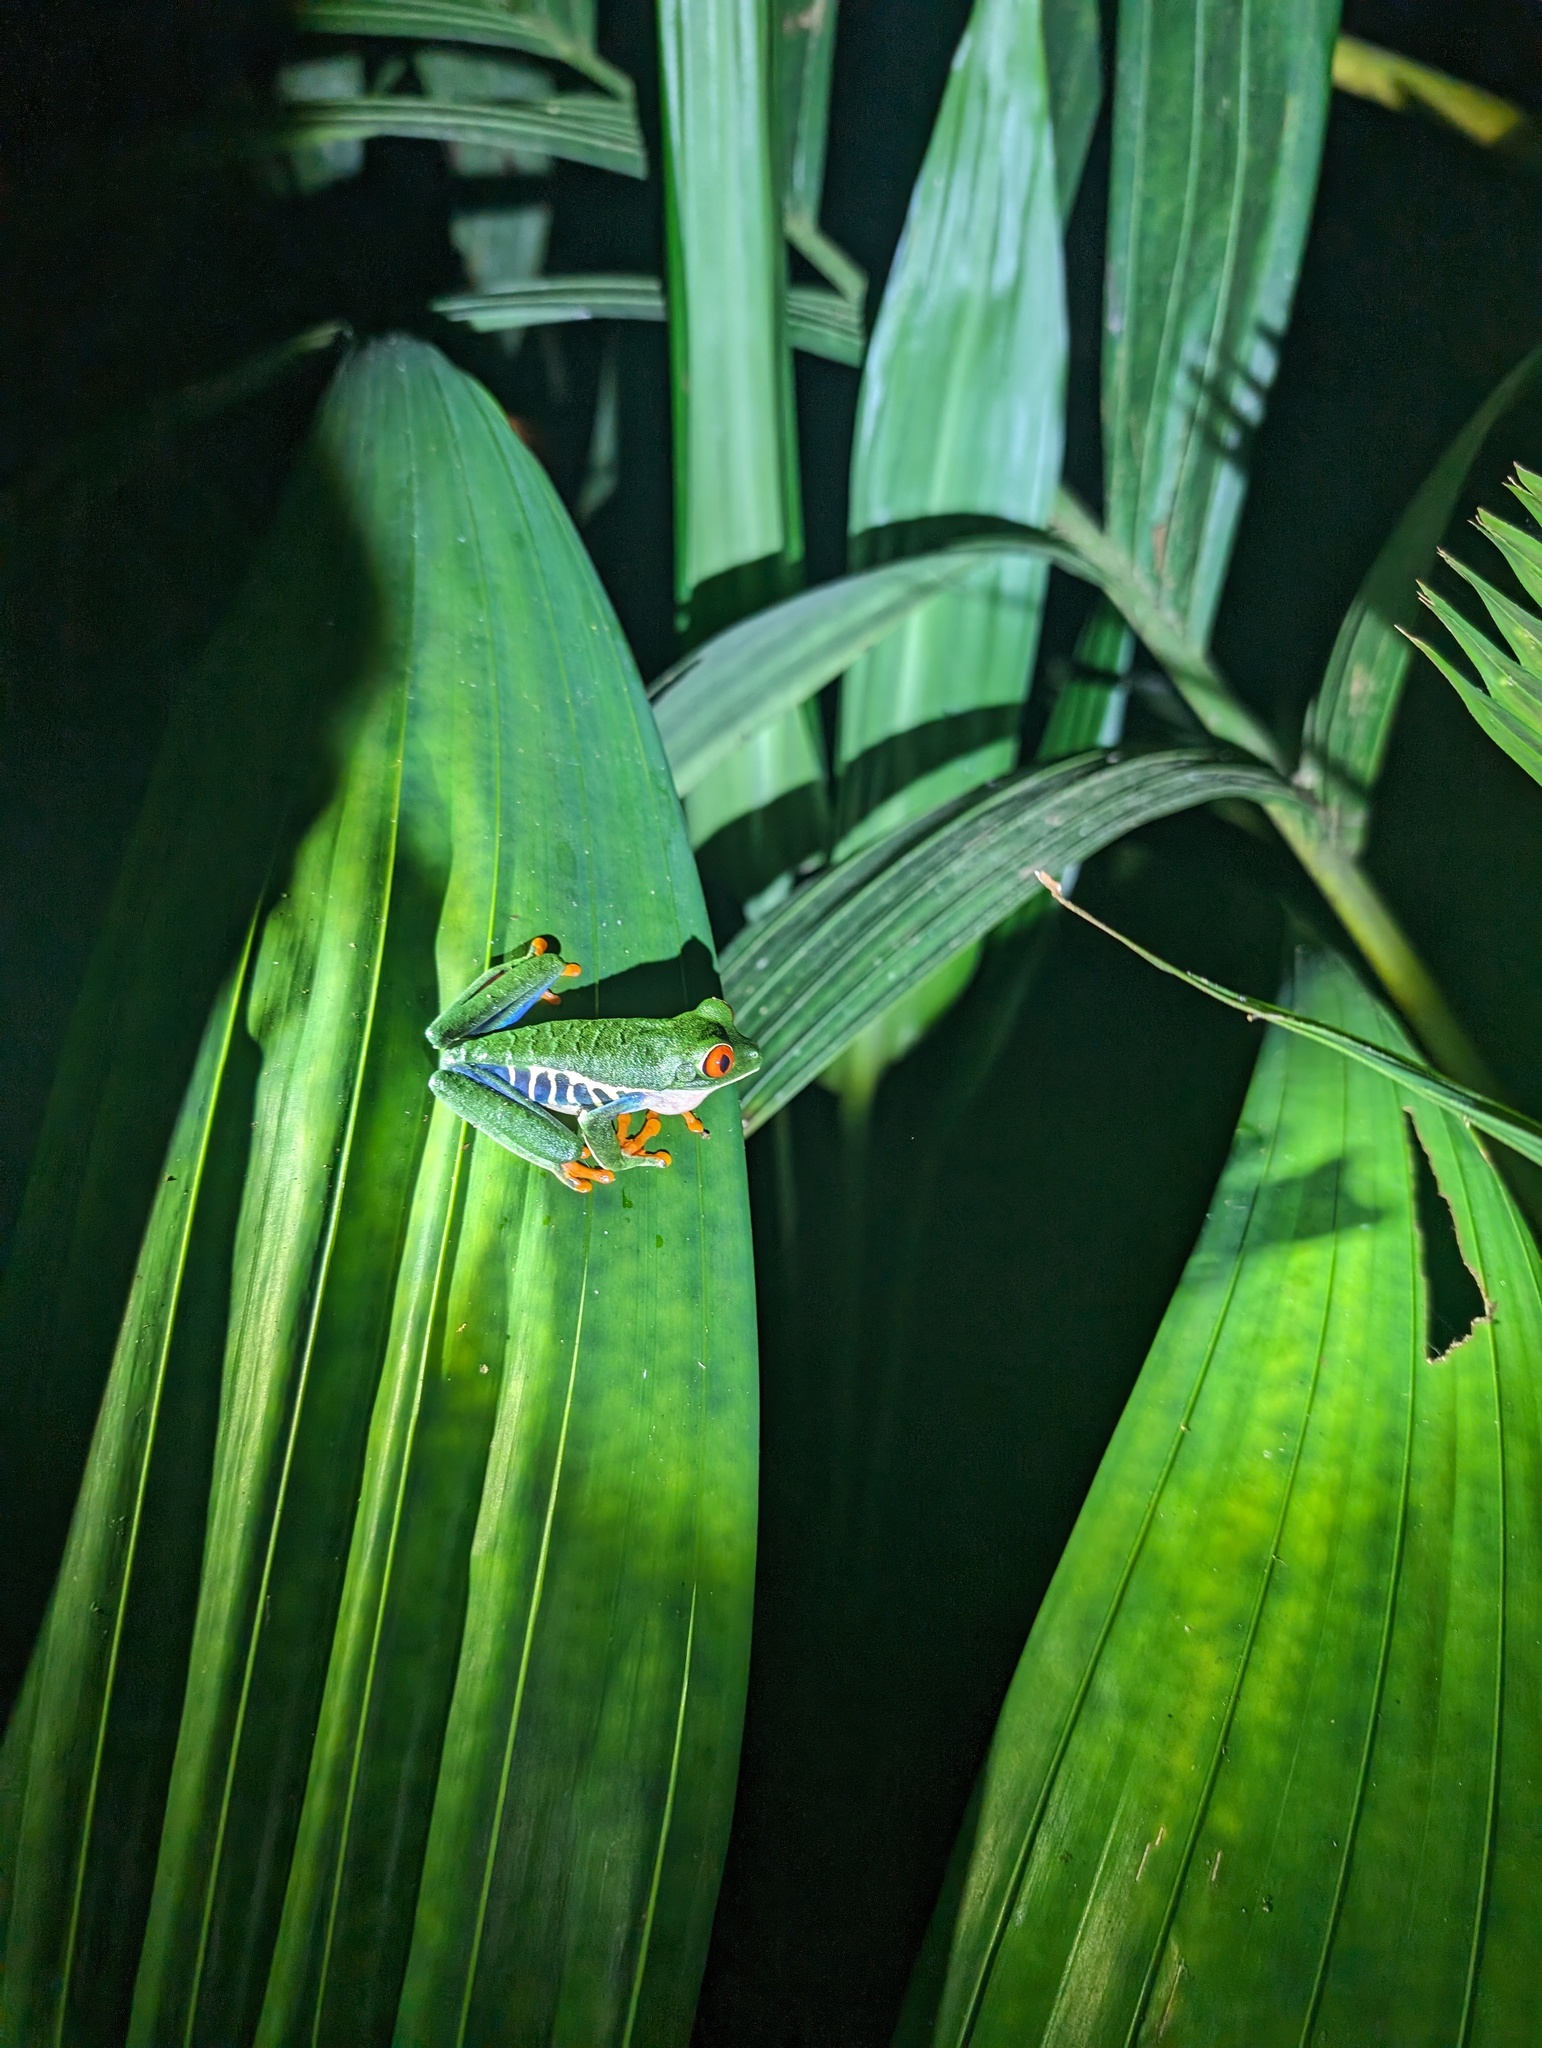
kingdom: Animalia
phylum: Chordata
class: Amphibia
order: Anura
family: Phyllomedusidae
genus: Agalychnis
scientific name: Agalychnis callidryas
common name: Red-eyed treefrog
